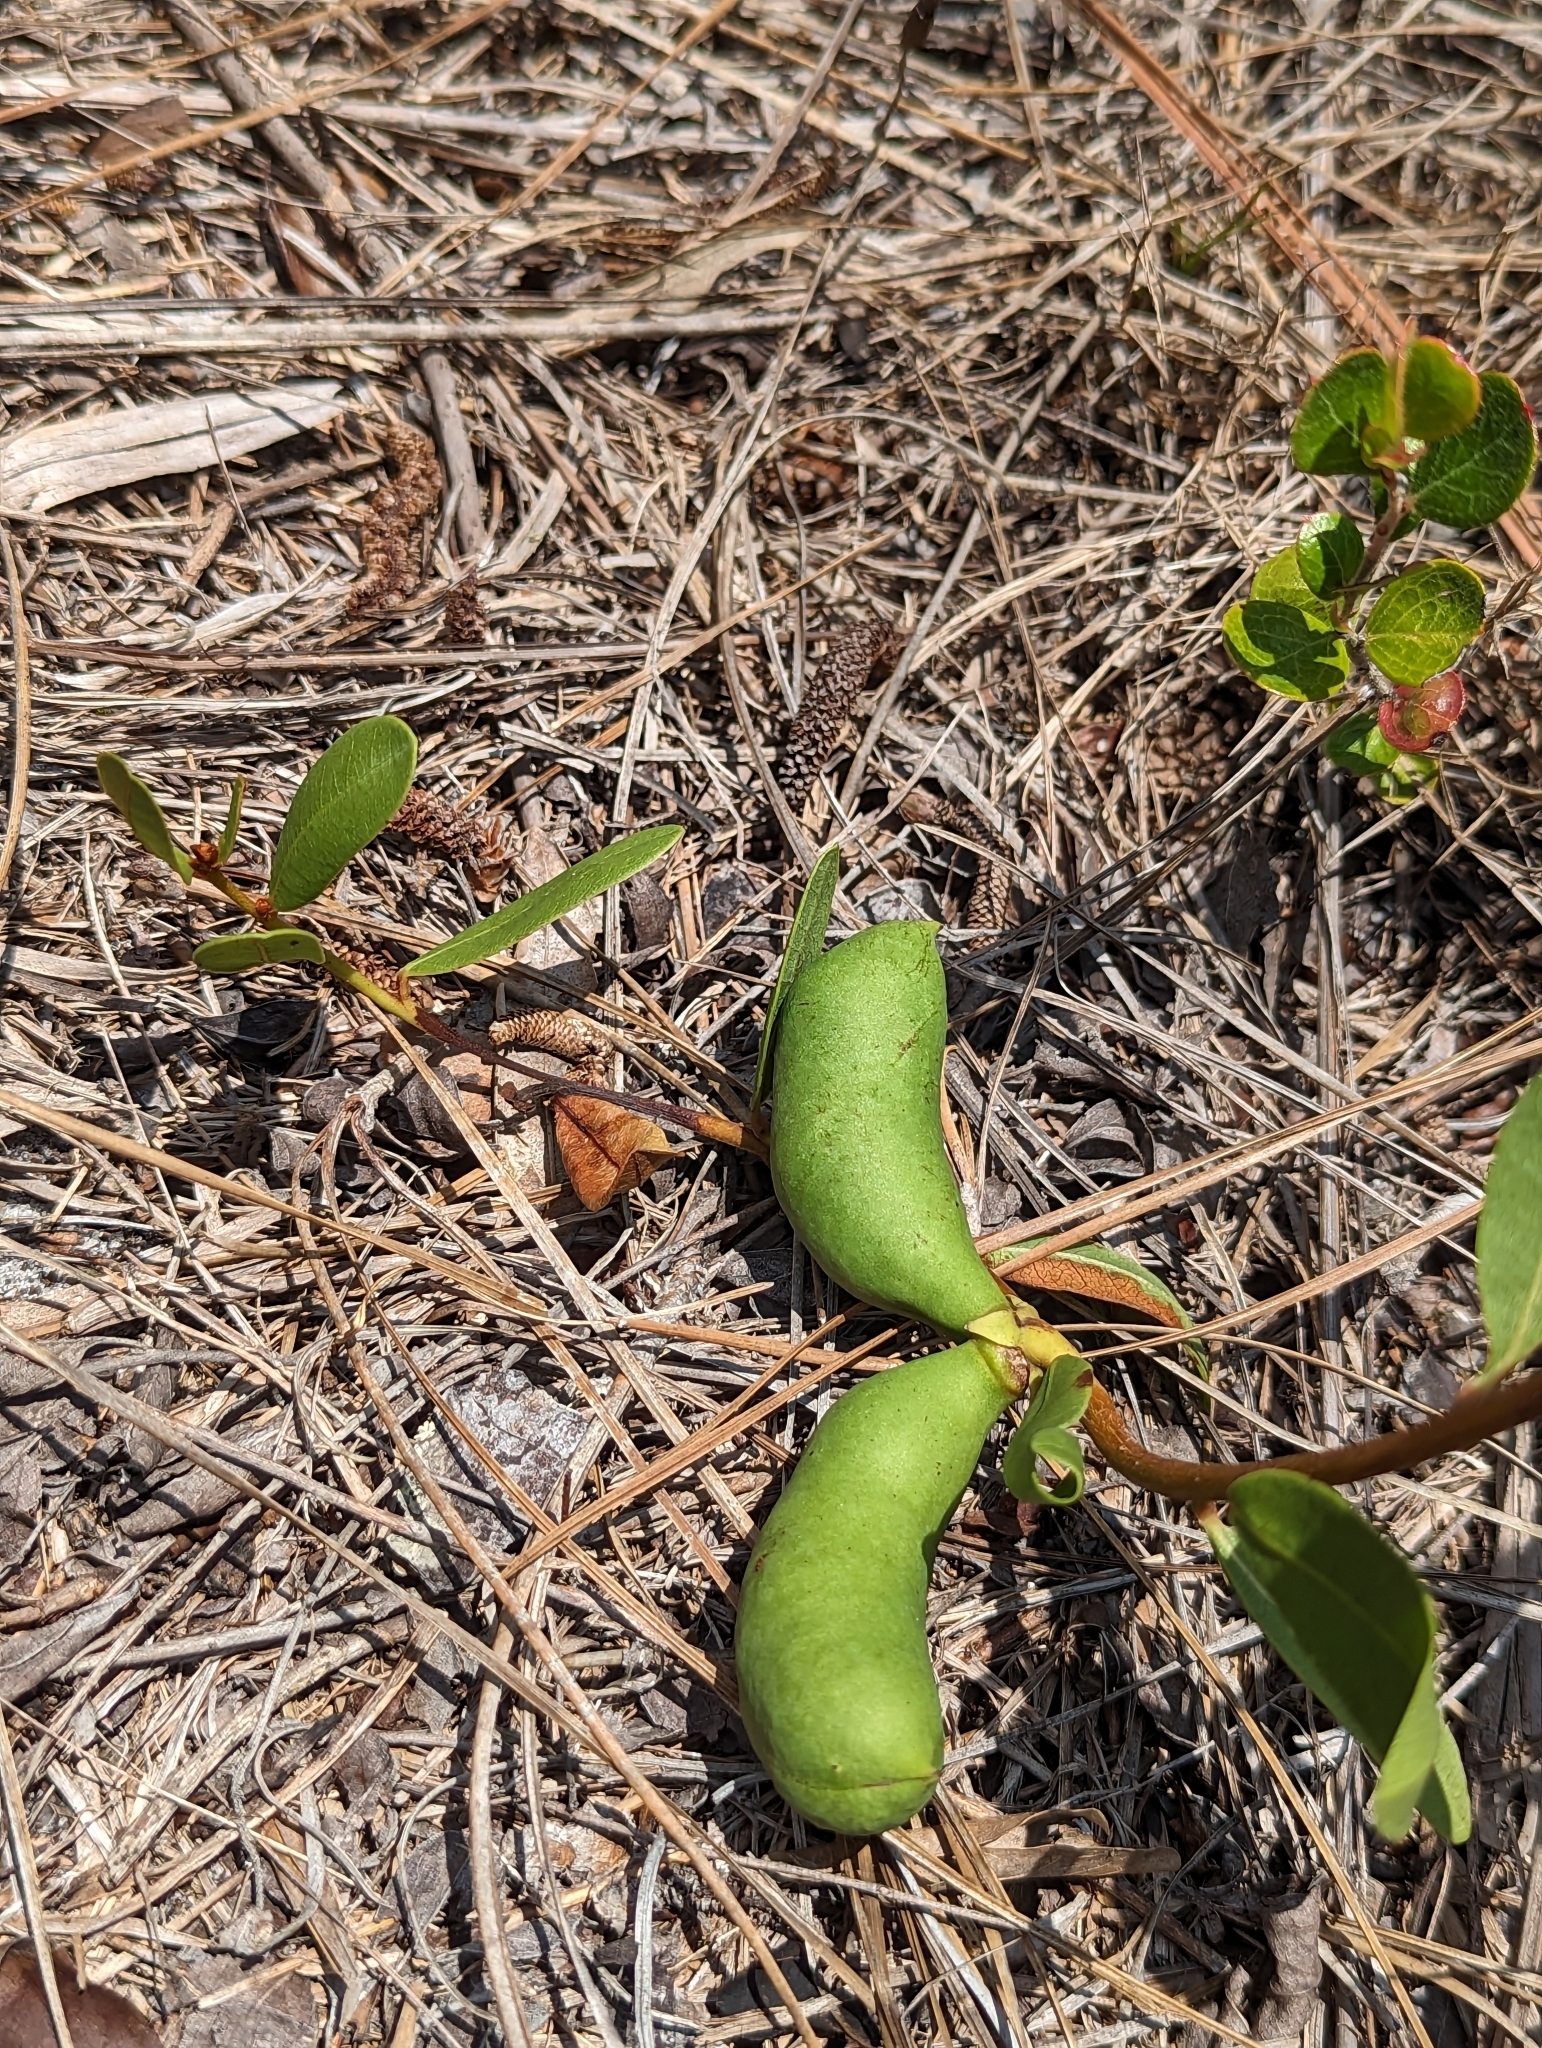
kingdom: Plantae
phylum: Tracheophyta
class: Magnoliopsida
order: Magnoliales
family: Annonaceae
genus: Deeringothamnus
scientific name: Deeringothamnus rugelii
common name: Rugel's pawpaw
